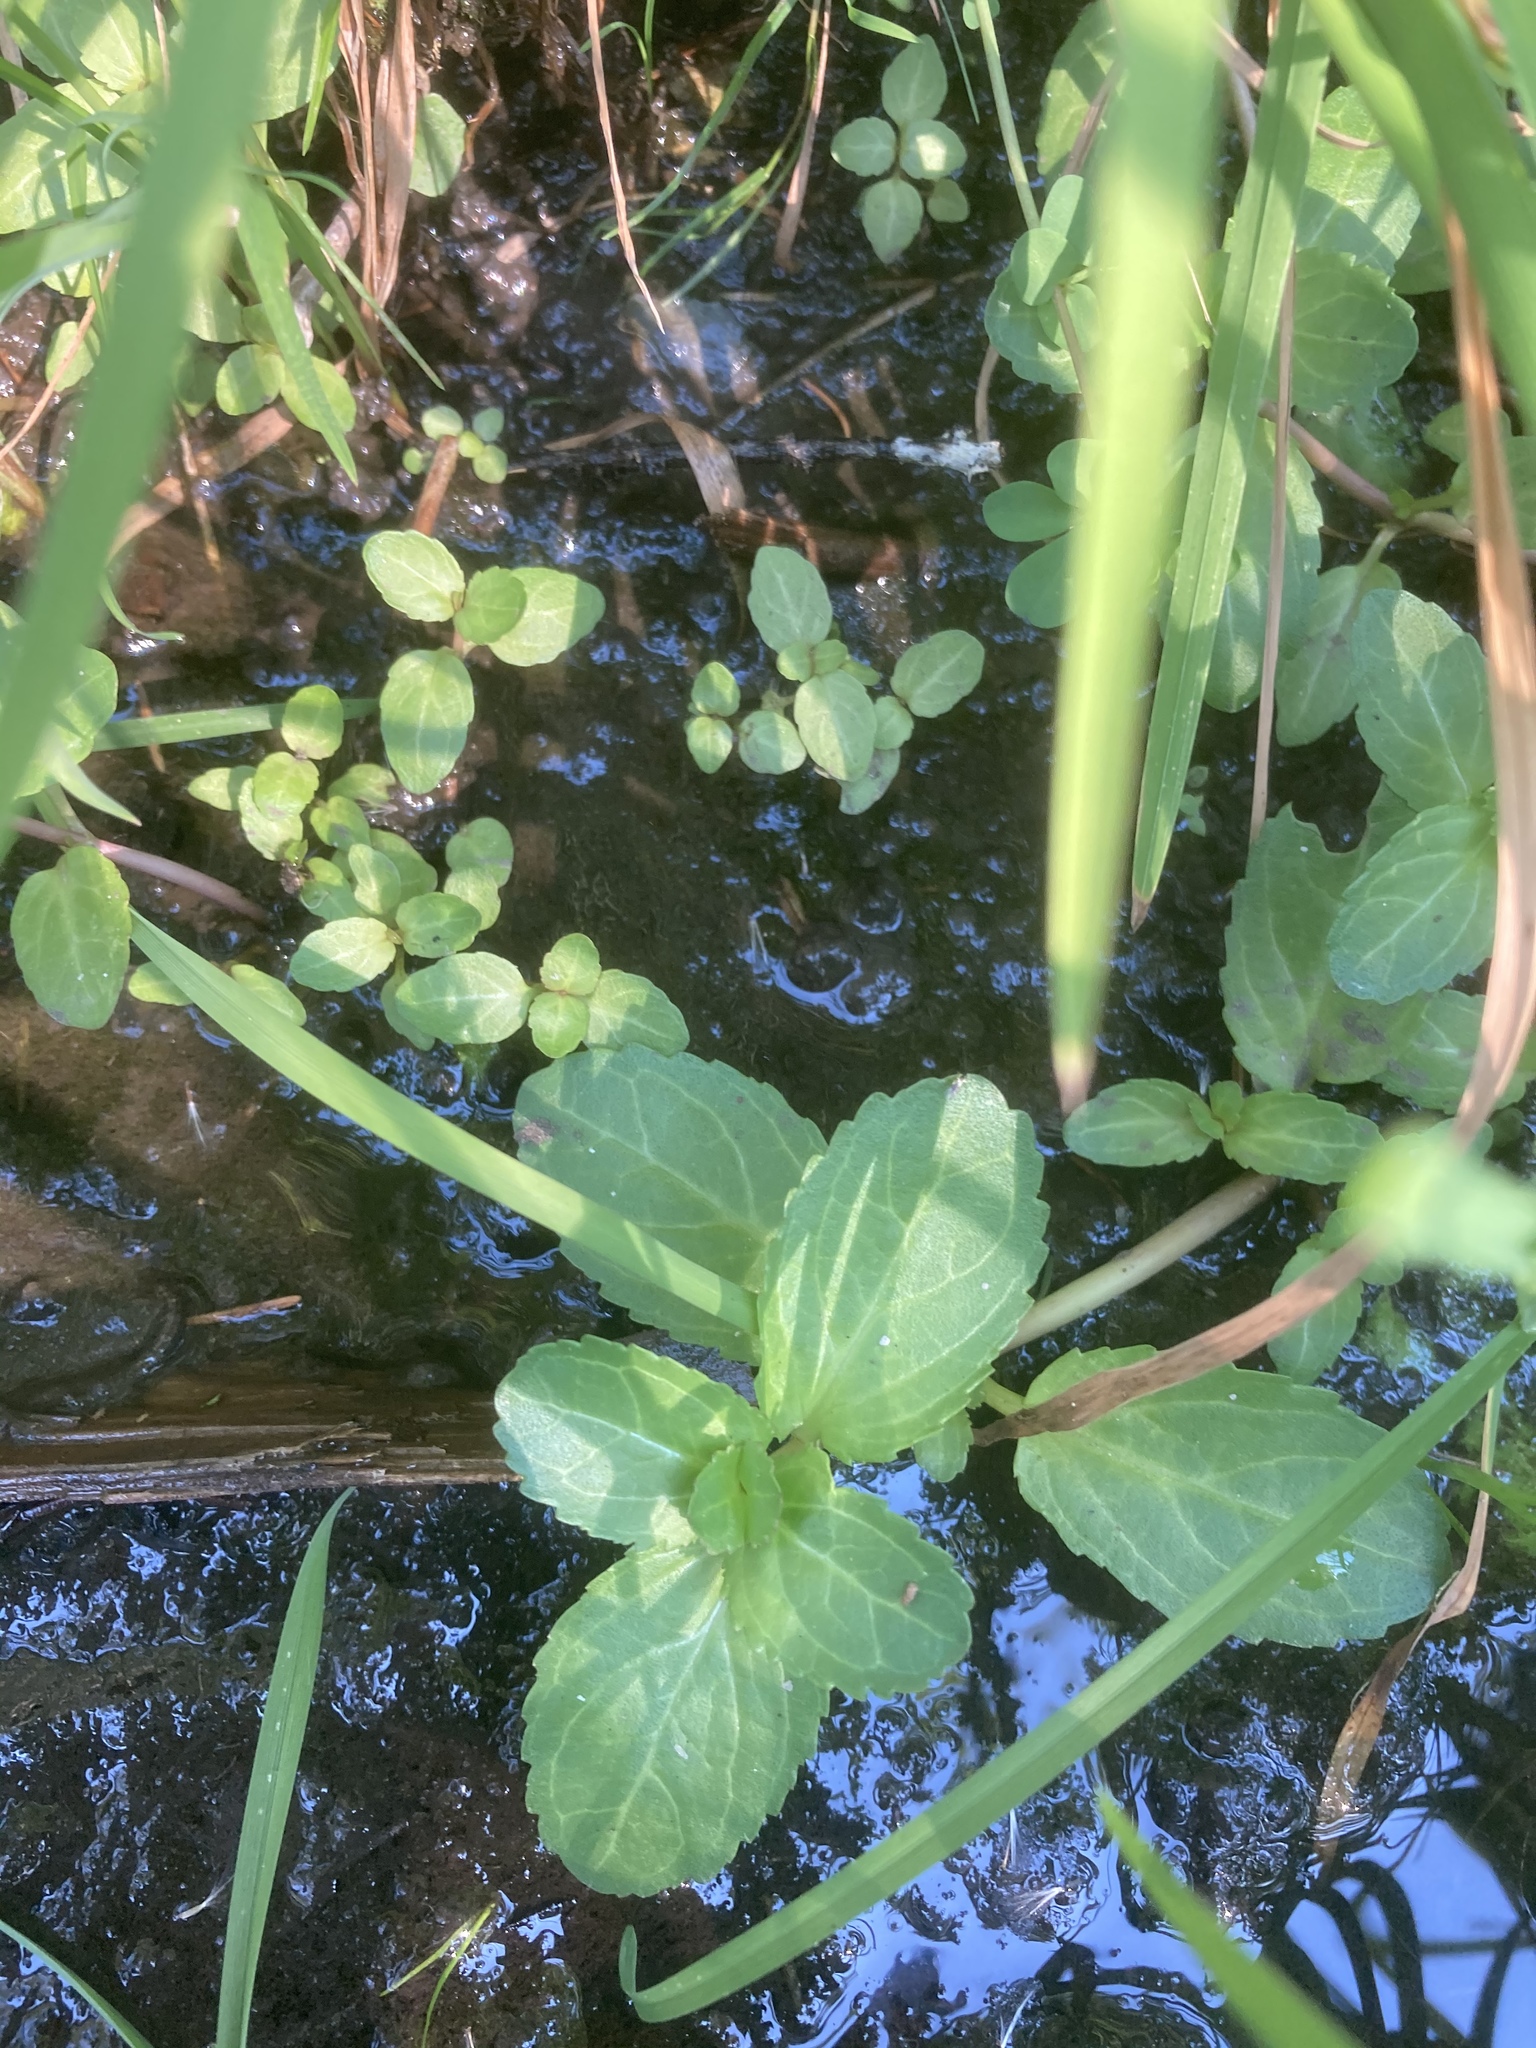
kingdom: Plantae
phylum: Tracheophyta
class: Magnoliopsida
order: Lamiales
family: Plantaginaceae
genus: Veronica
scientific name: Veronica beccabunga
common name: Brooklime
